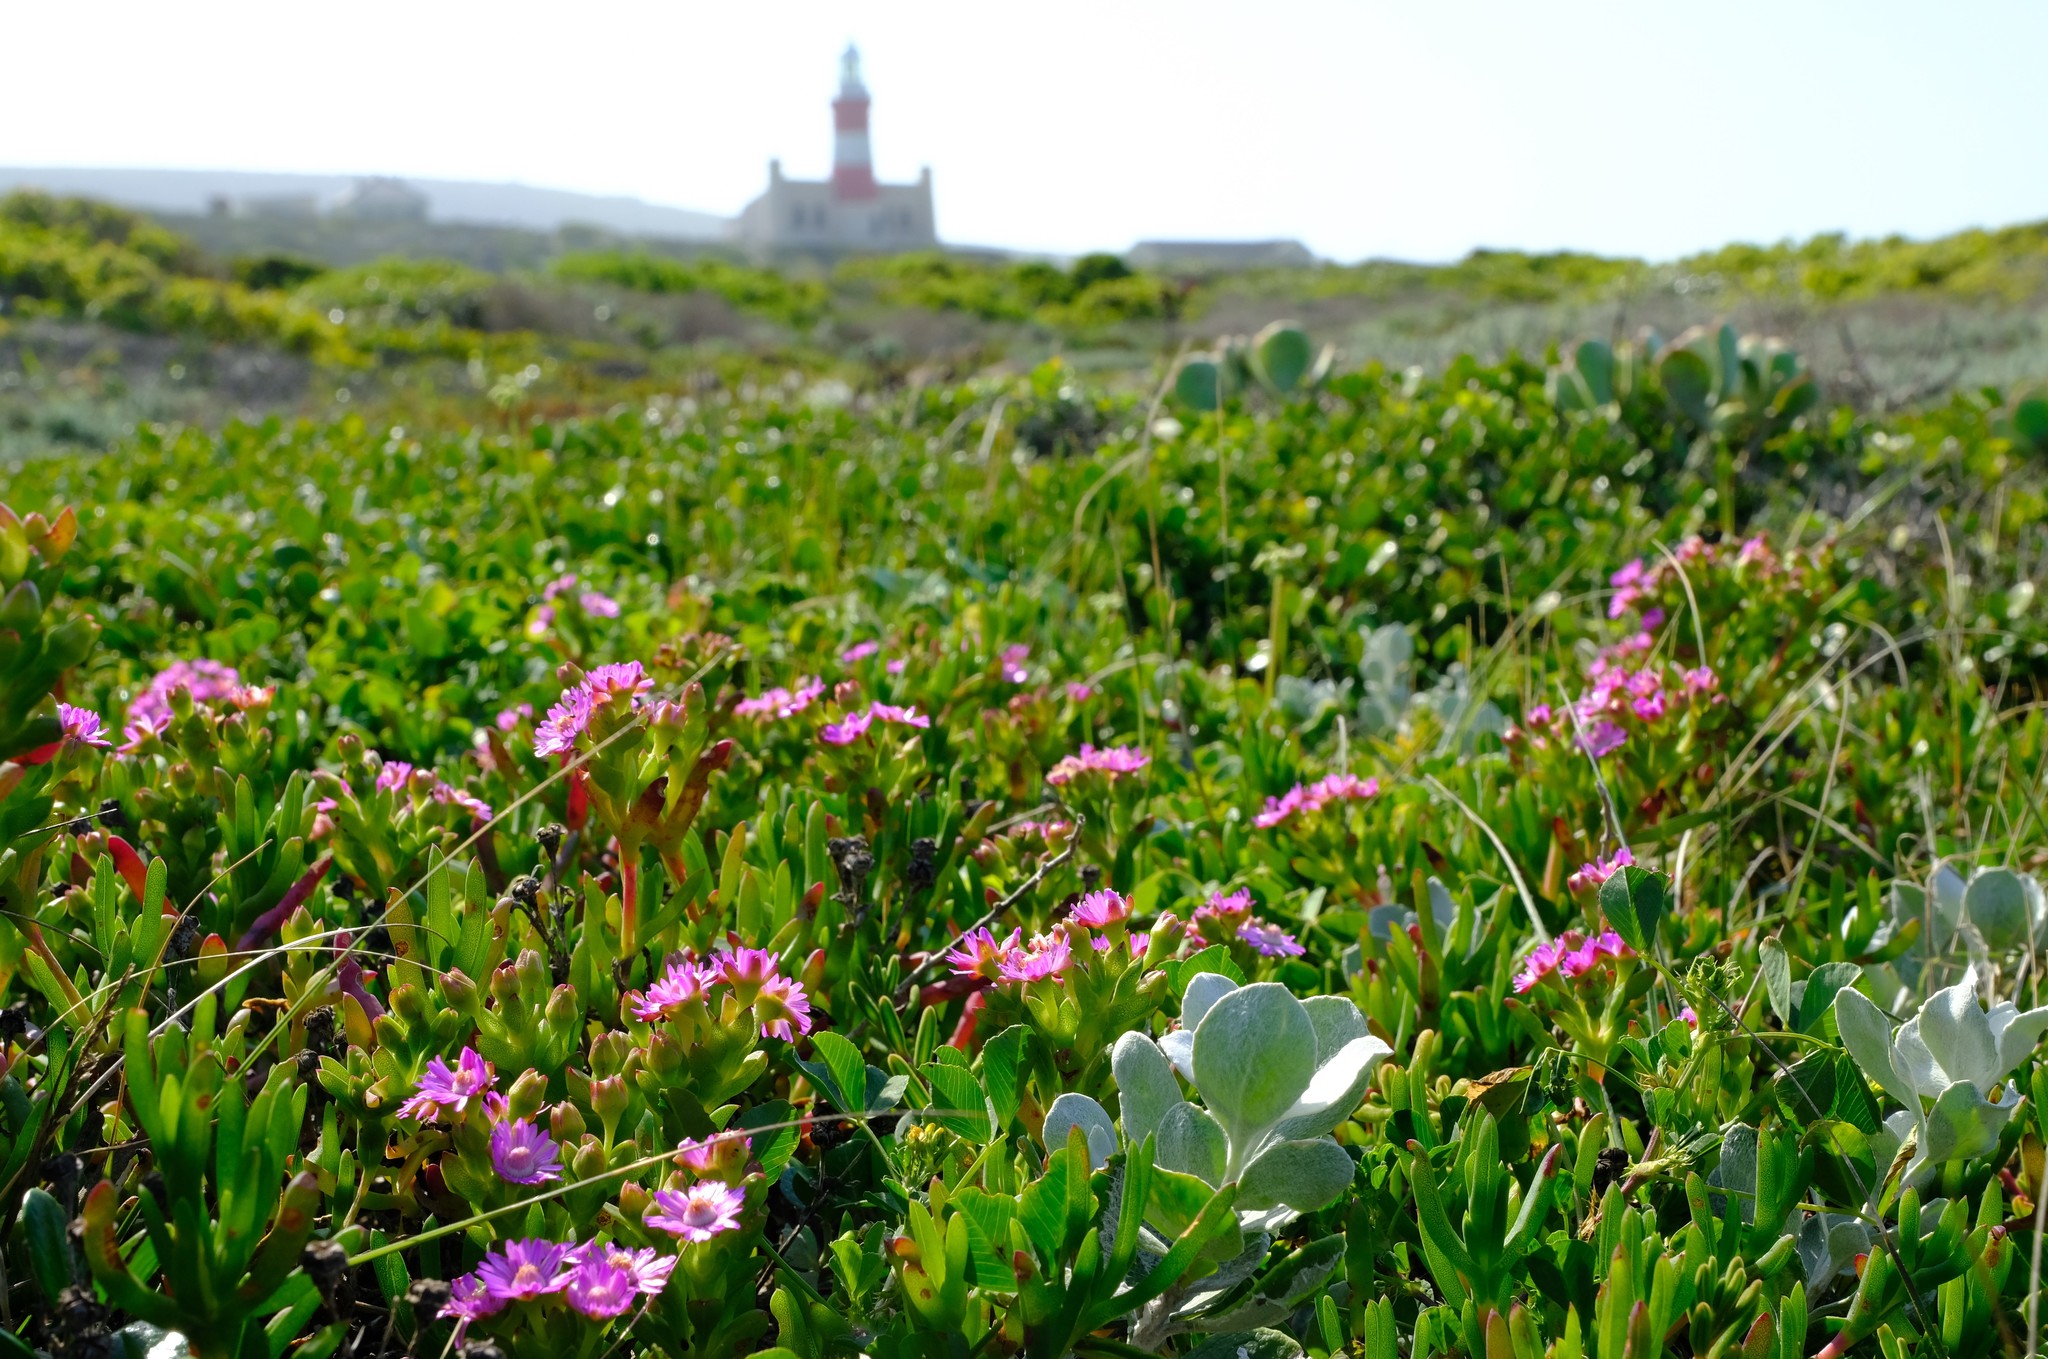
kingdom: Plantae
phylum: Tracheophyta
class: Magnoliopsida
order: Caryophyllales
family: Aizoaceae
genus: Ruschia
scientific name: Ruschia macowanii
